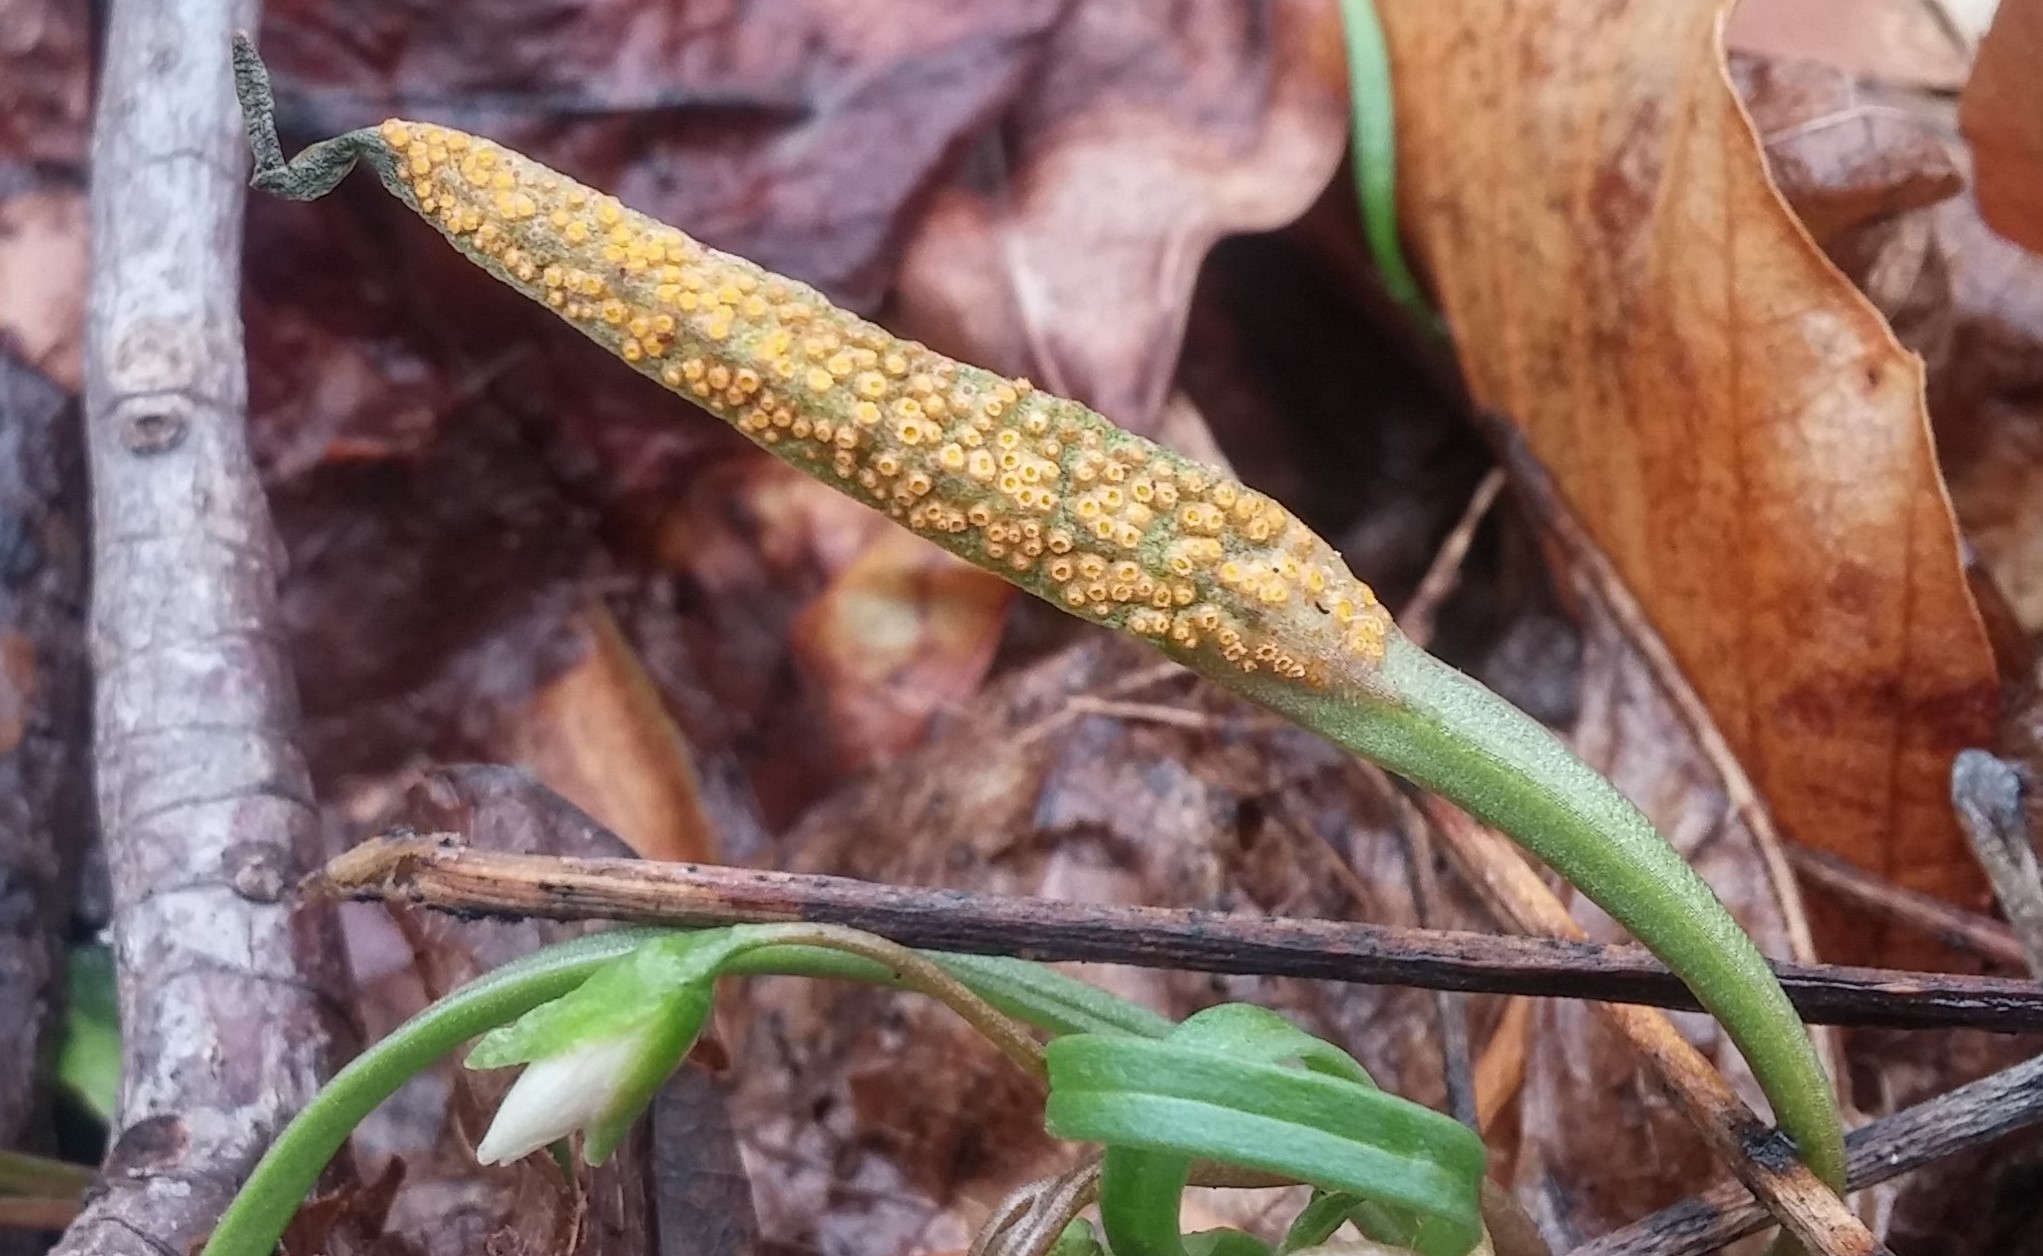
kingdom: Fungi
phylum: Basidiomycota
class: Pucciniomycetes
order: Pucciniales
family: Pucciniaceae
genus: Puccinia
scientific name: Puccinia mariae-wilsoniae
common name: Spring beauty rust
